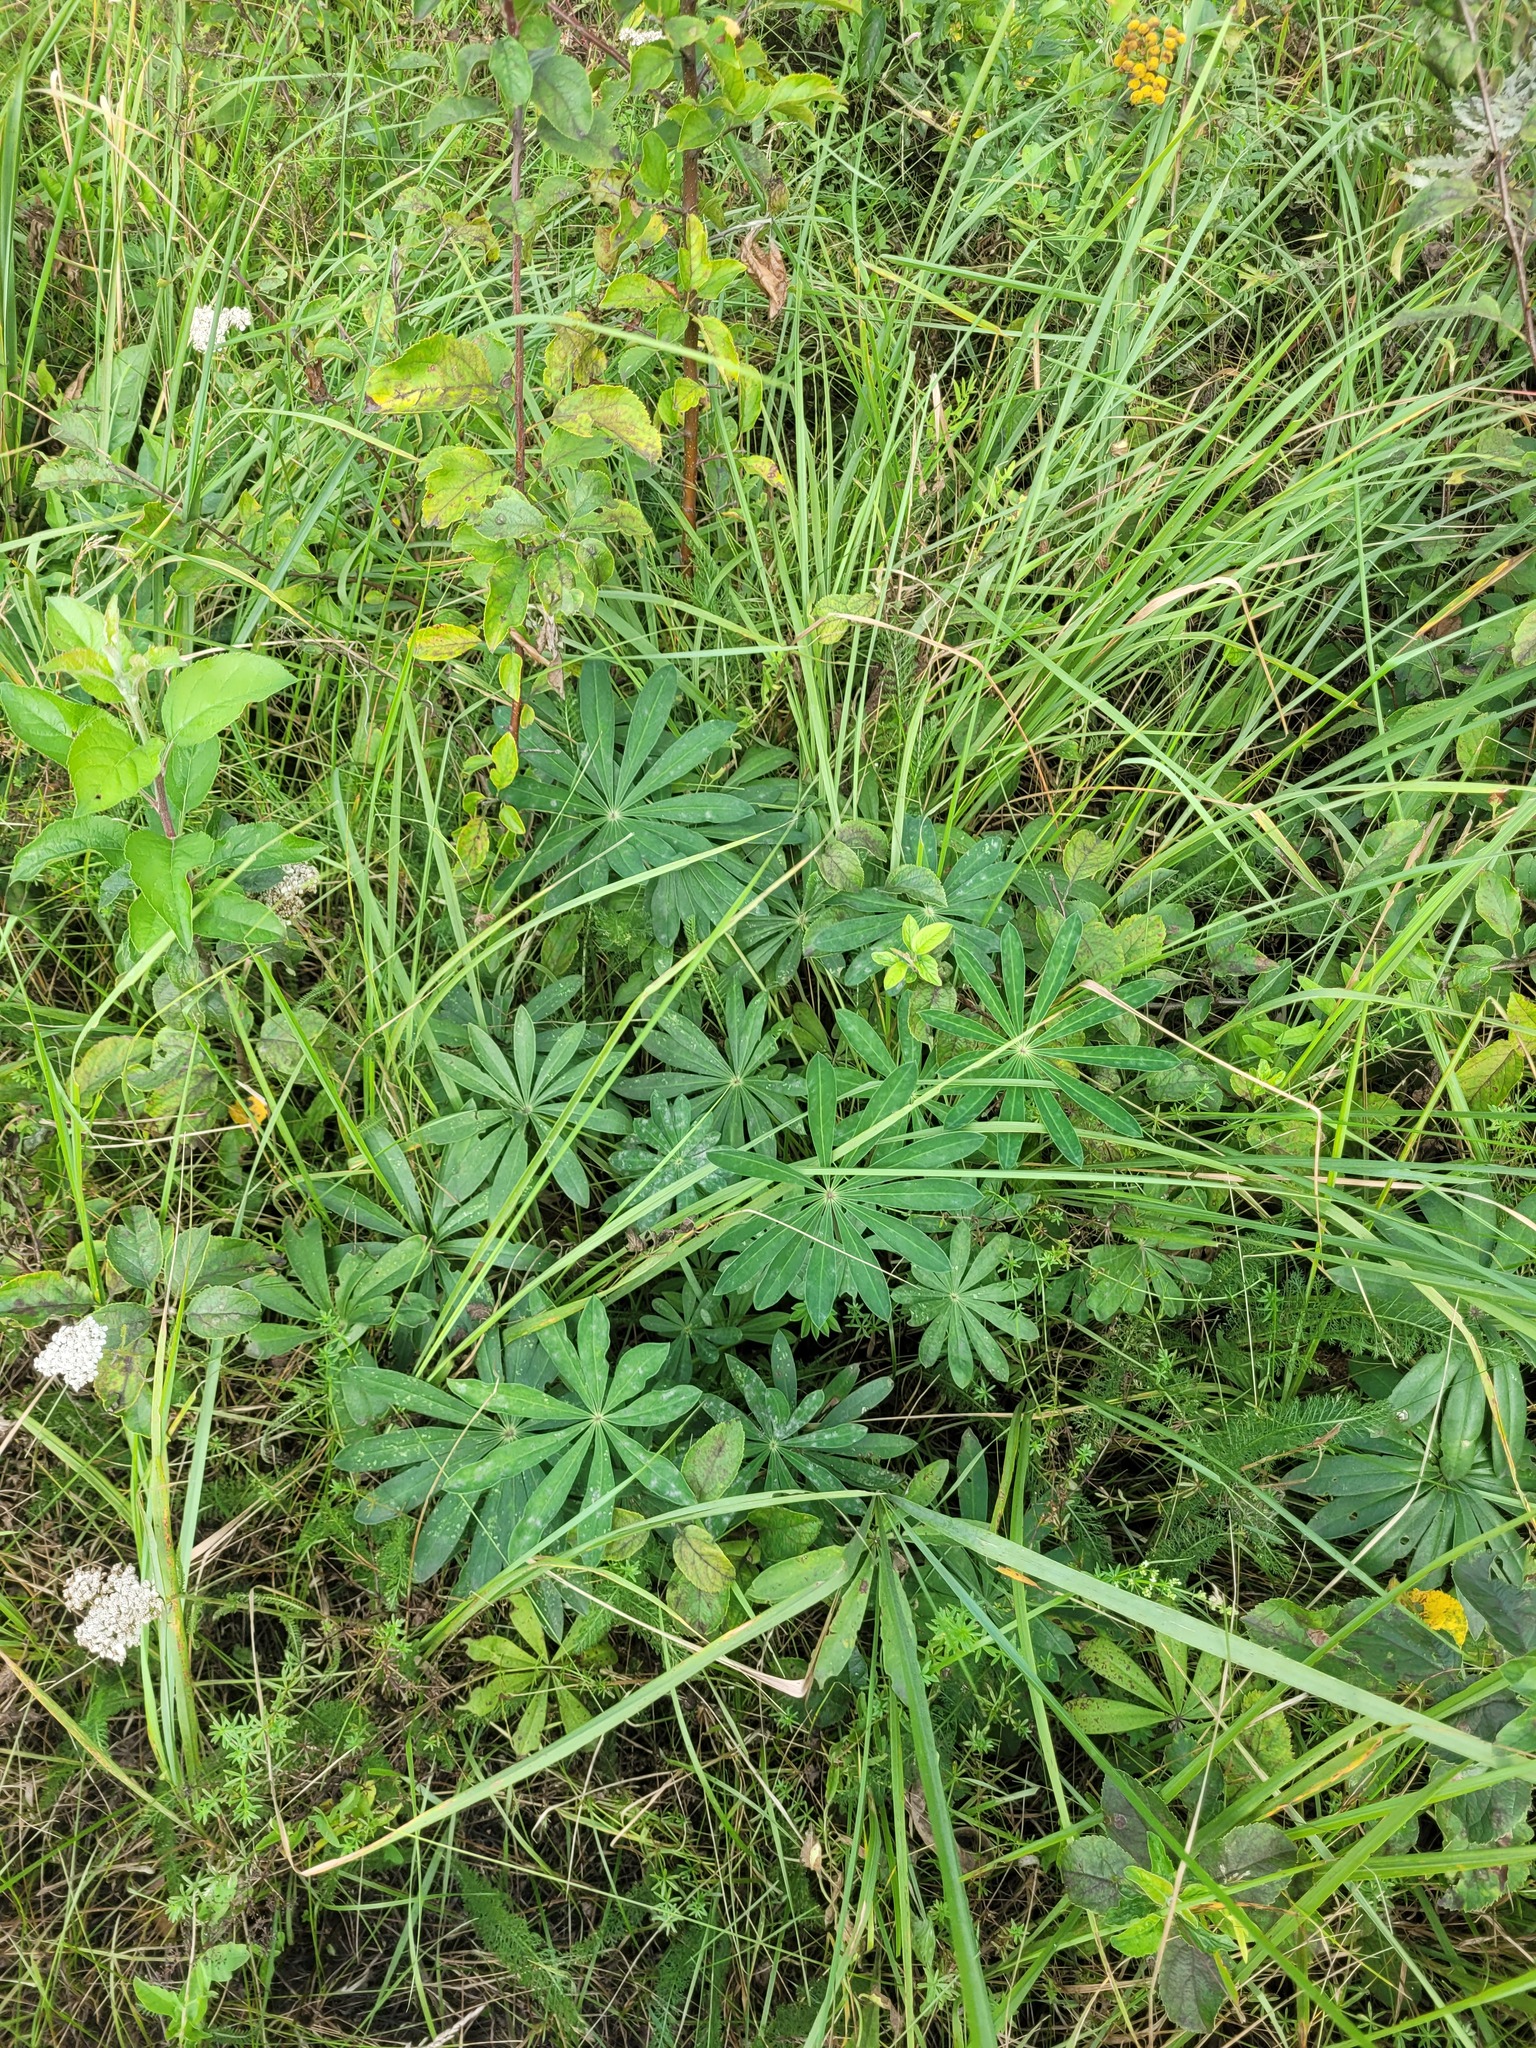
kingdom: Plantae
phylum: Tracheophyta
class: Magnoliopsida
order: Fabales
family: Fabaceae
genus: Lupinus
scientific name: Lupinus polyphyllus
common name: Garden lupin
